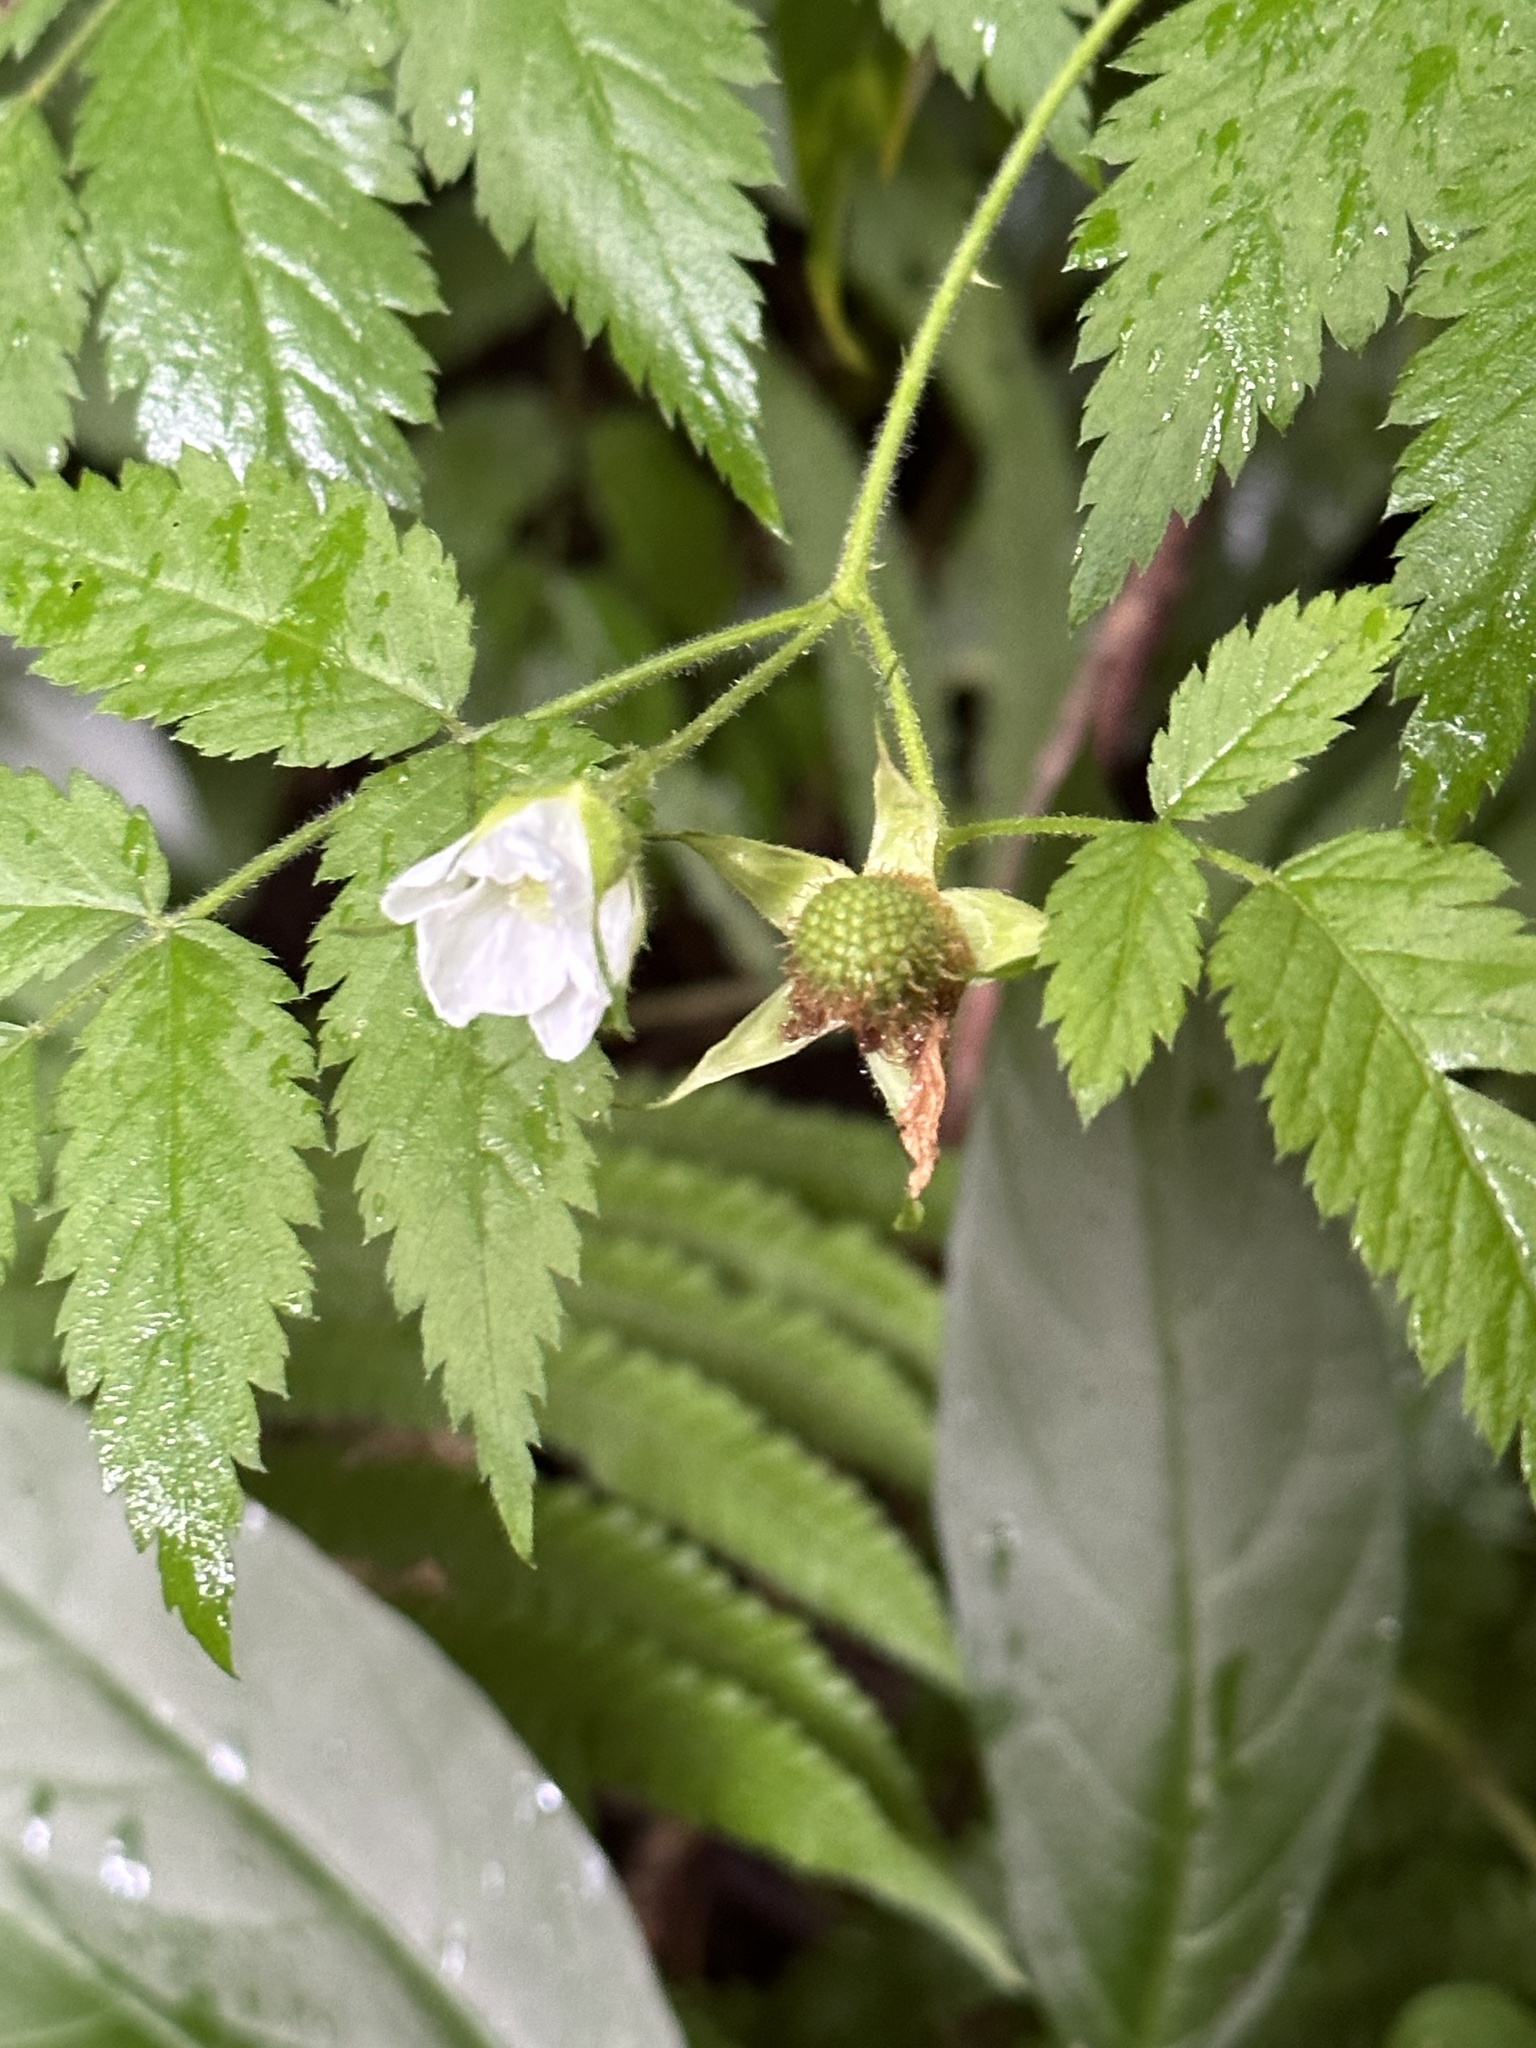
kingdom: Plantae
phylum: Tracheophyta
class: Magnoliopsida
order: Rosales
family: Rosaceae
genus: Rubus
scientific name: Rubus rosifolius
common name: Roseleaf raspberry
